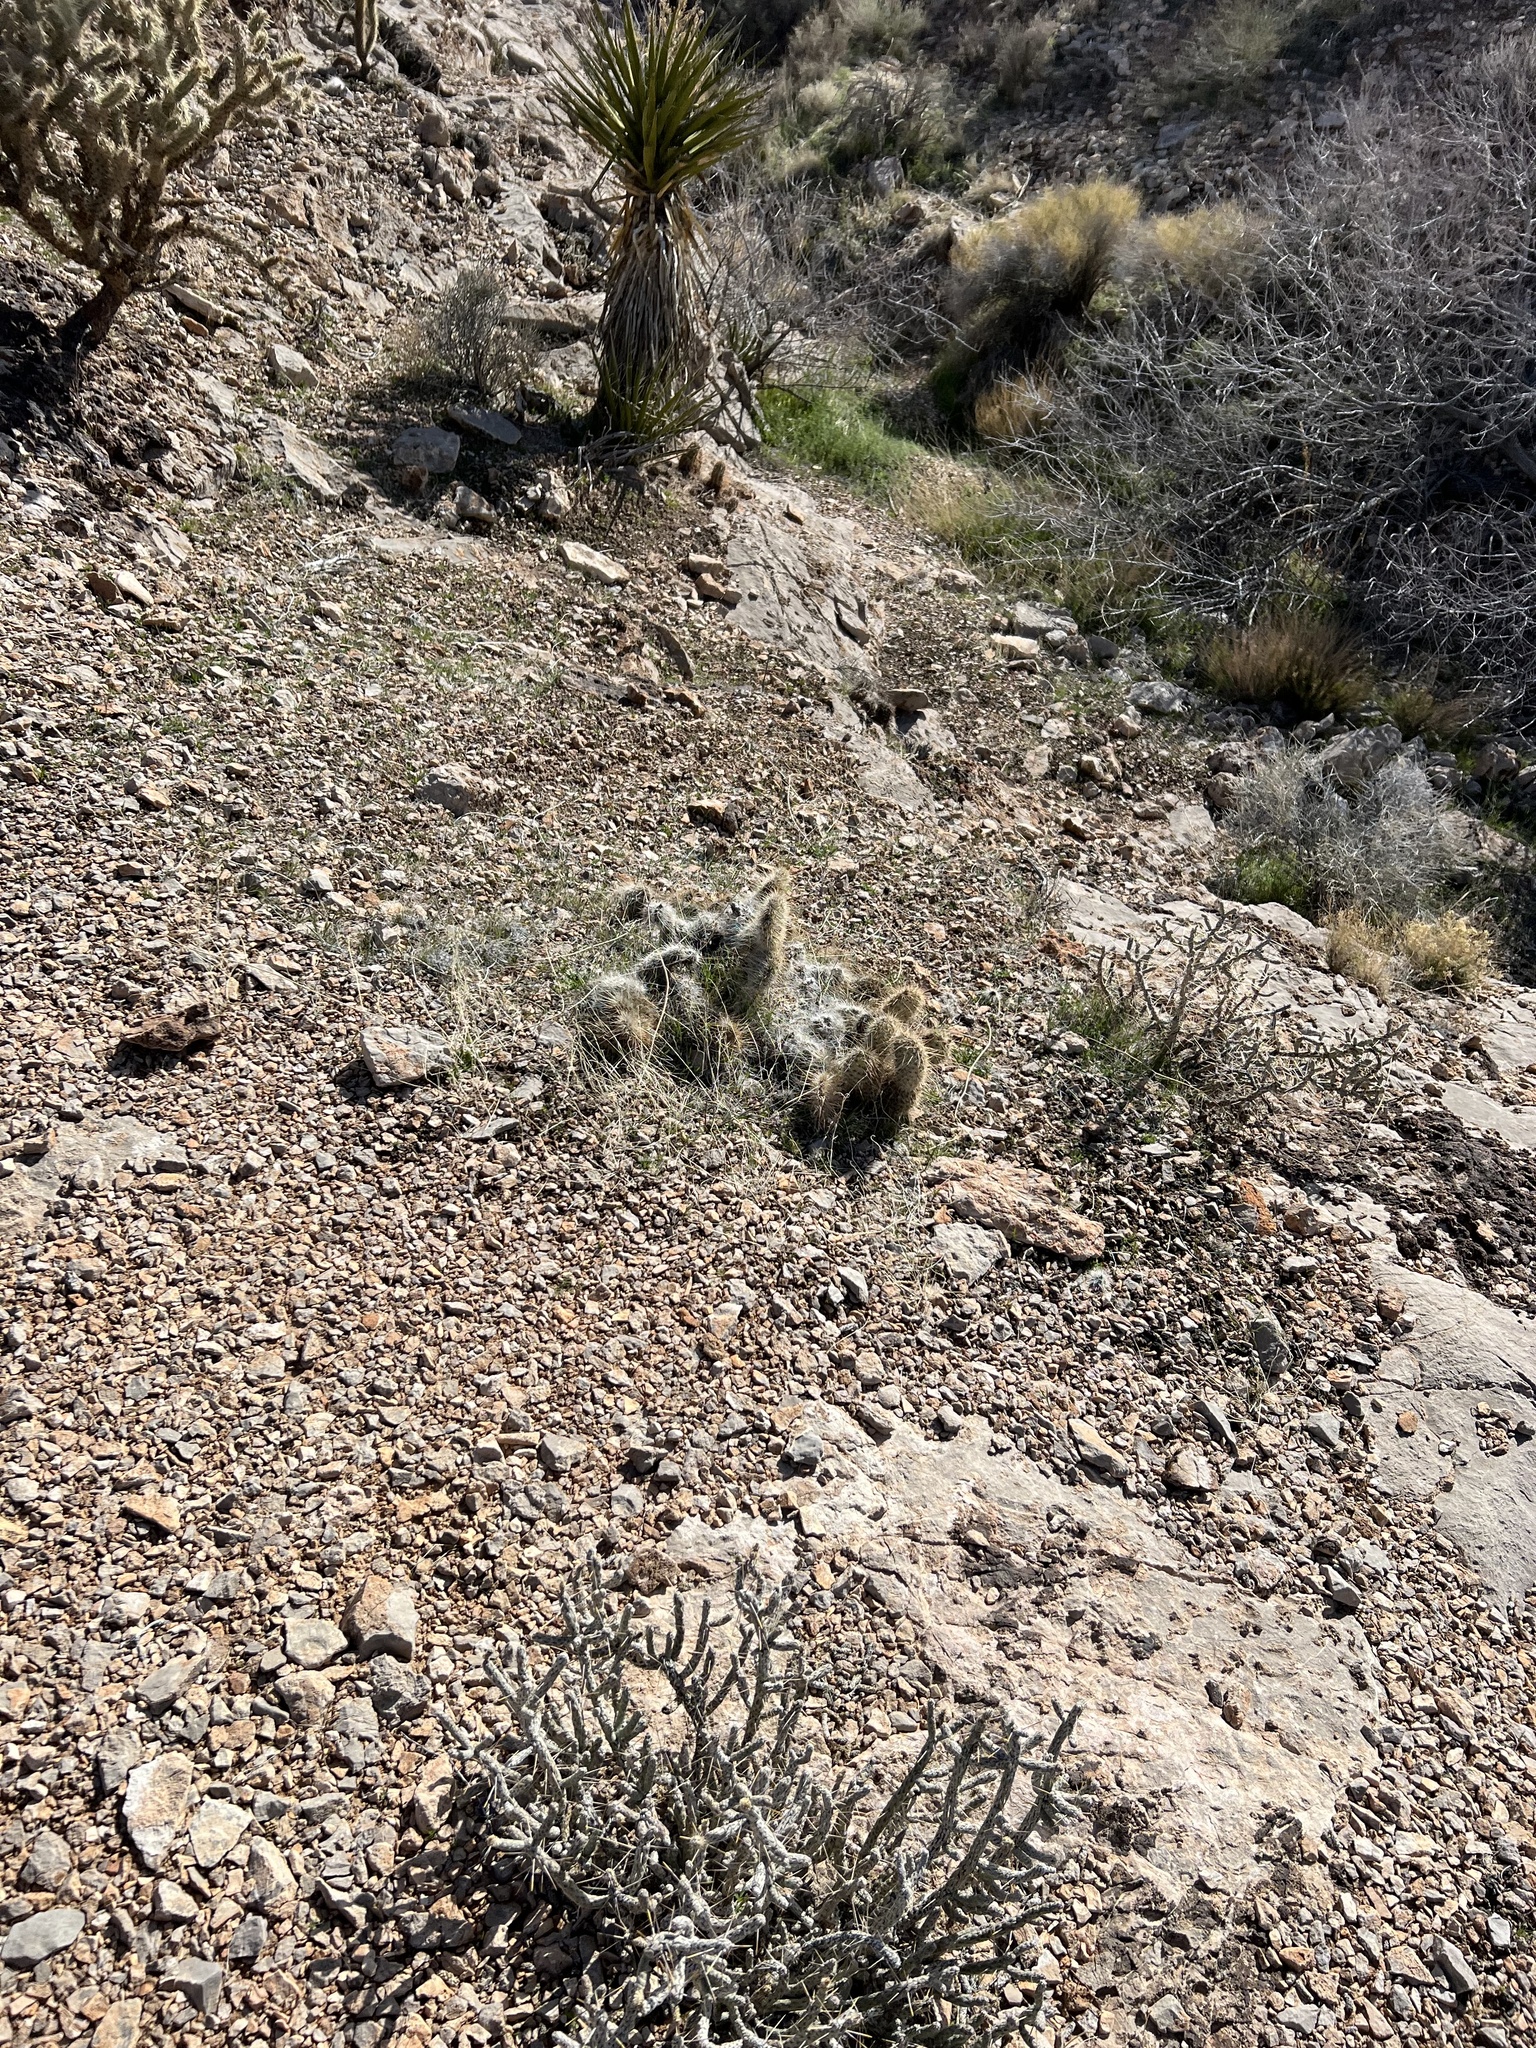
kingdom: Plantae
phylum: Tracheophyta
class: Magnoliopsida
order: Caryophyllales
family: Cactaceae
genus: Opuntia
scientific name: Opuntia polyacantha
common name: Plains prickly-pear
